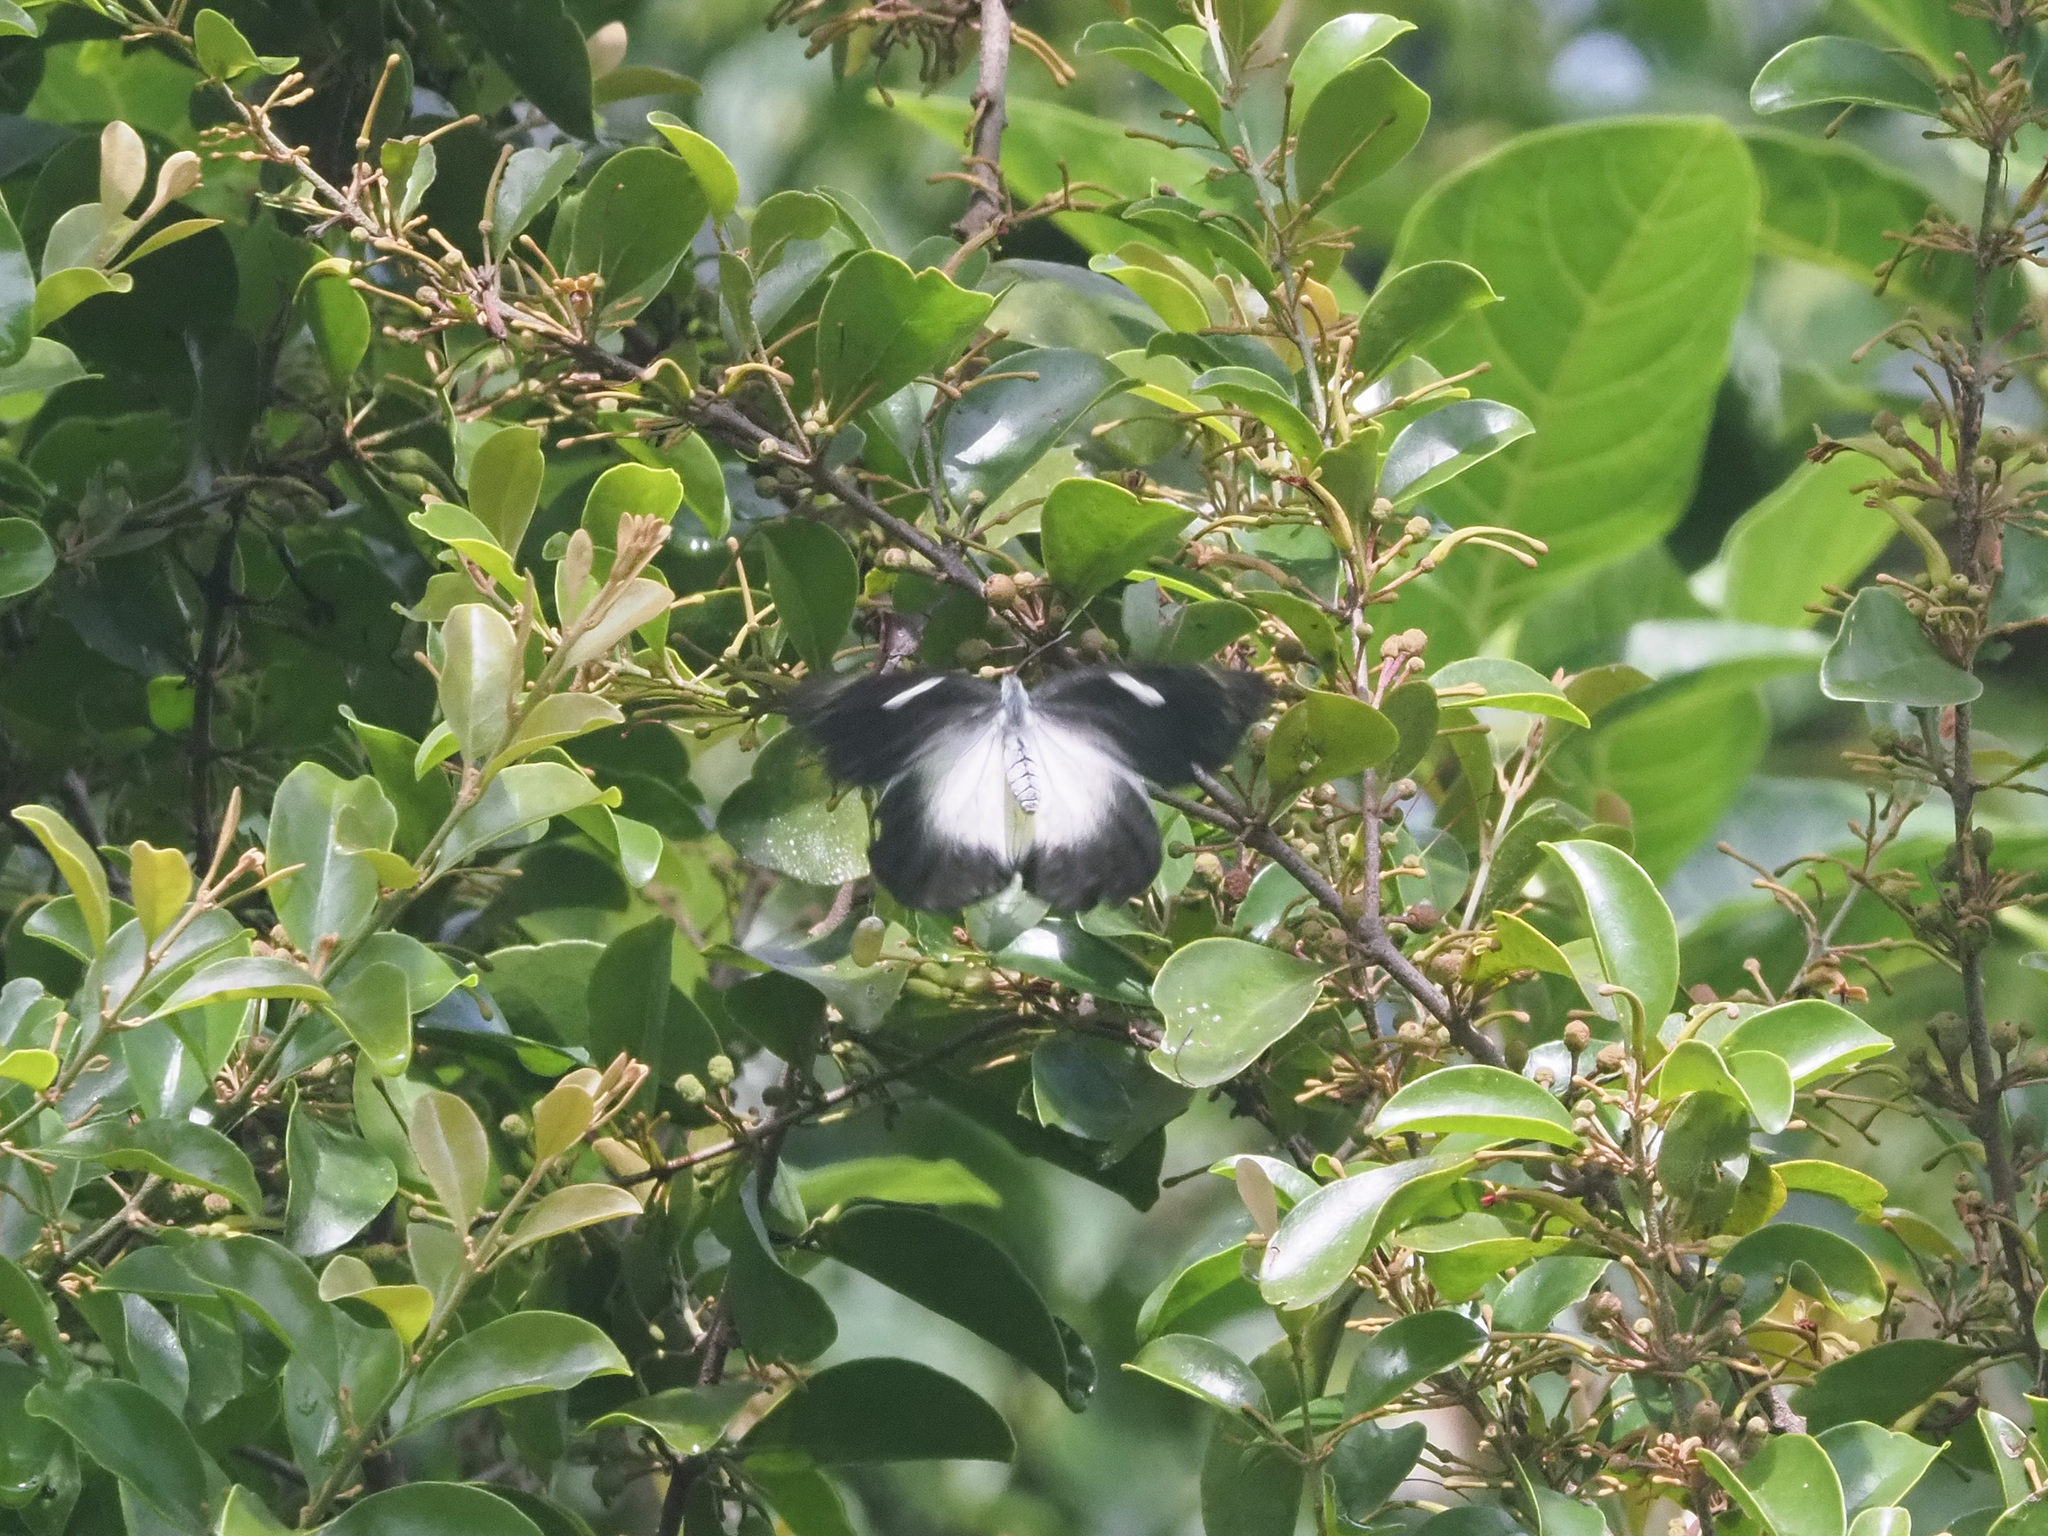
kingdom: Animalia
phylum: Arthropoda
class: Insecta
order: Lepidoptera
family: Pieridae
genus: Delias
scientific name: Delias eumolpe
